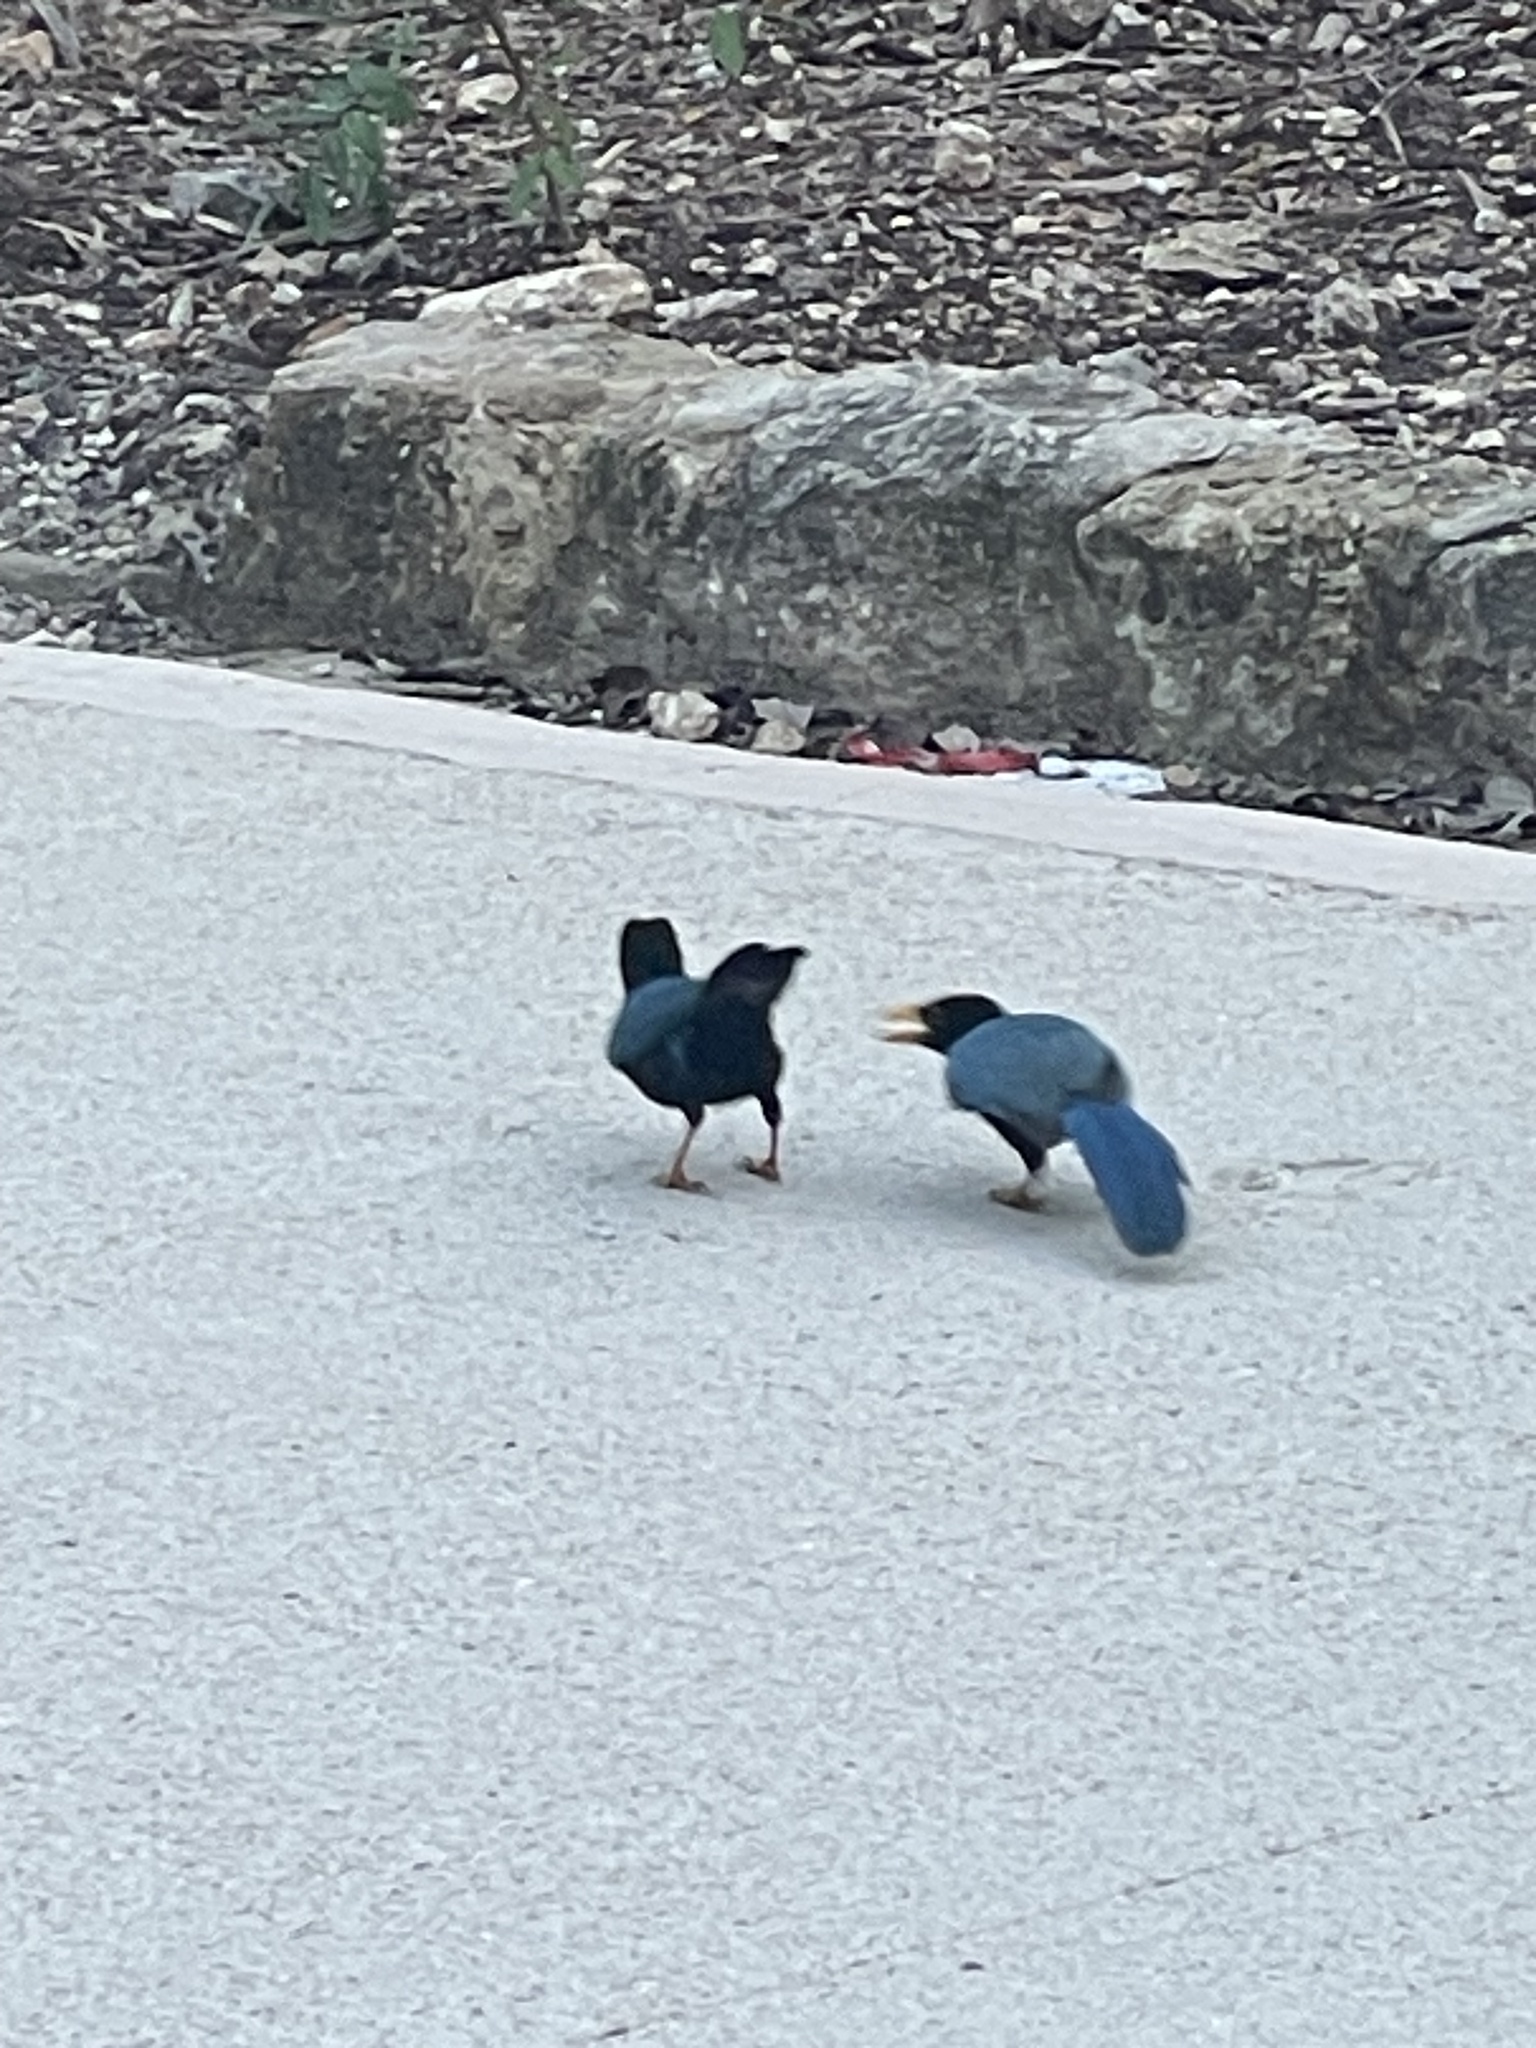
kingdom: Animalia
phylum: Chordata
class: Aves
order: Passeriformes
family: Corvidae
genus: Cyanocorax
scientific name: Cyanocorax yucatanicus
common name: Yucatan jay
